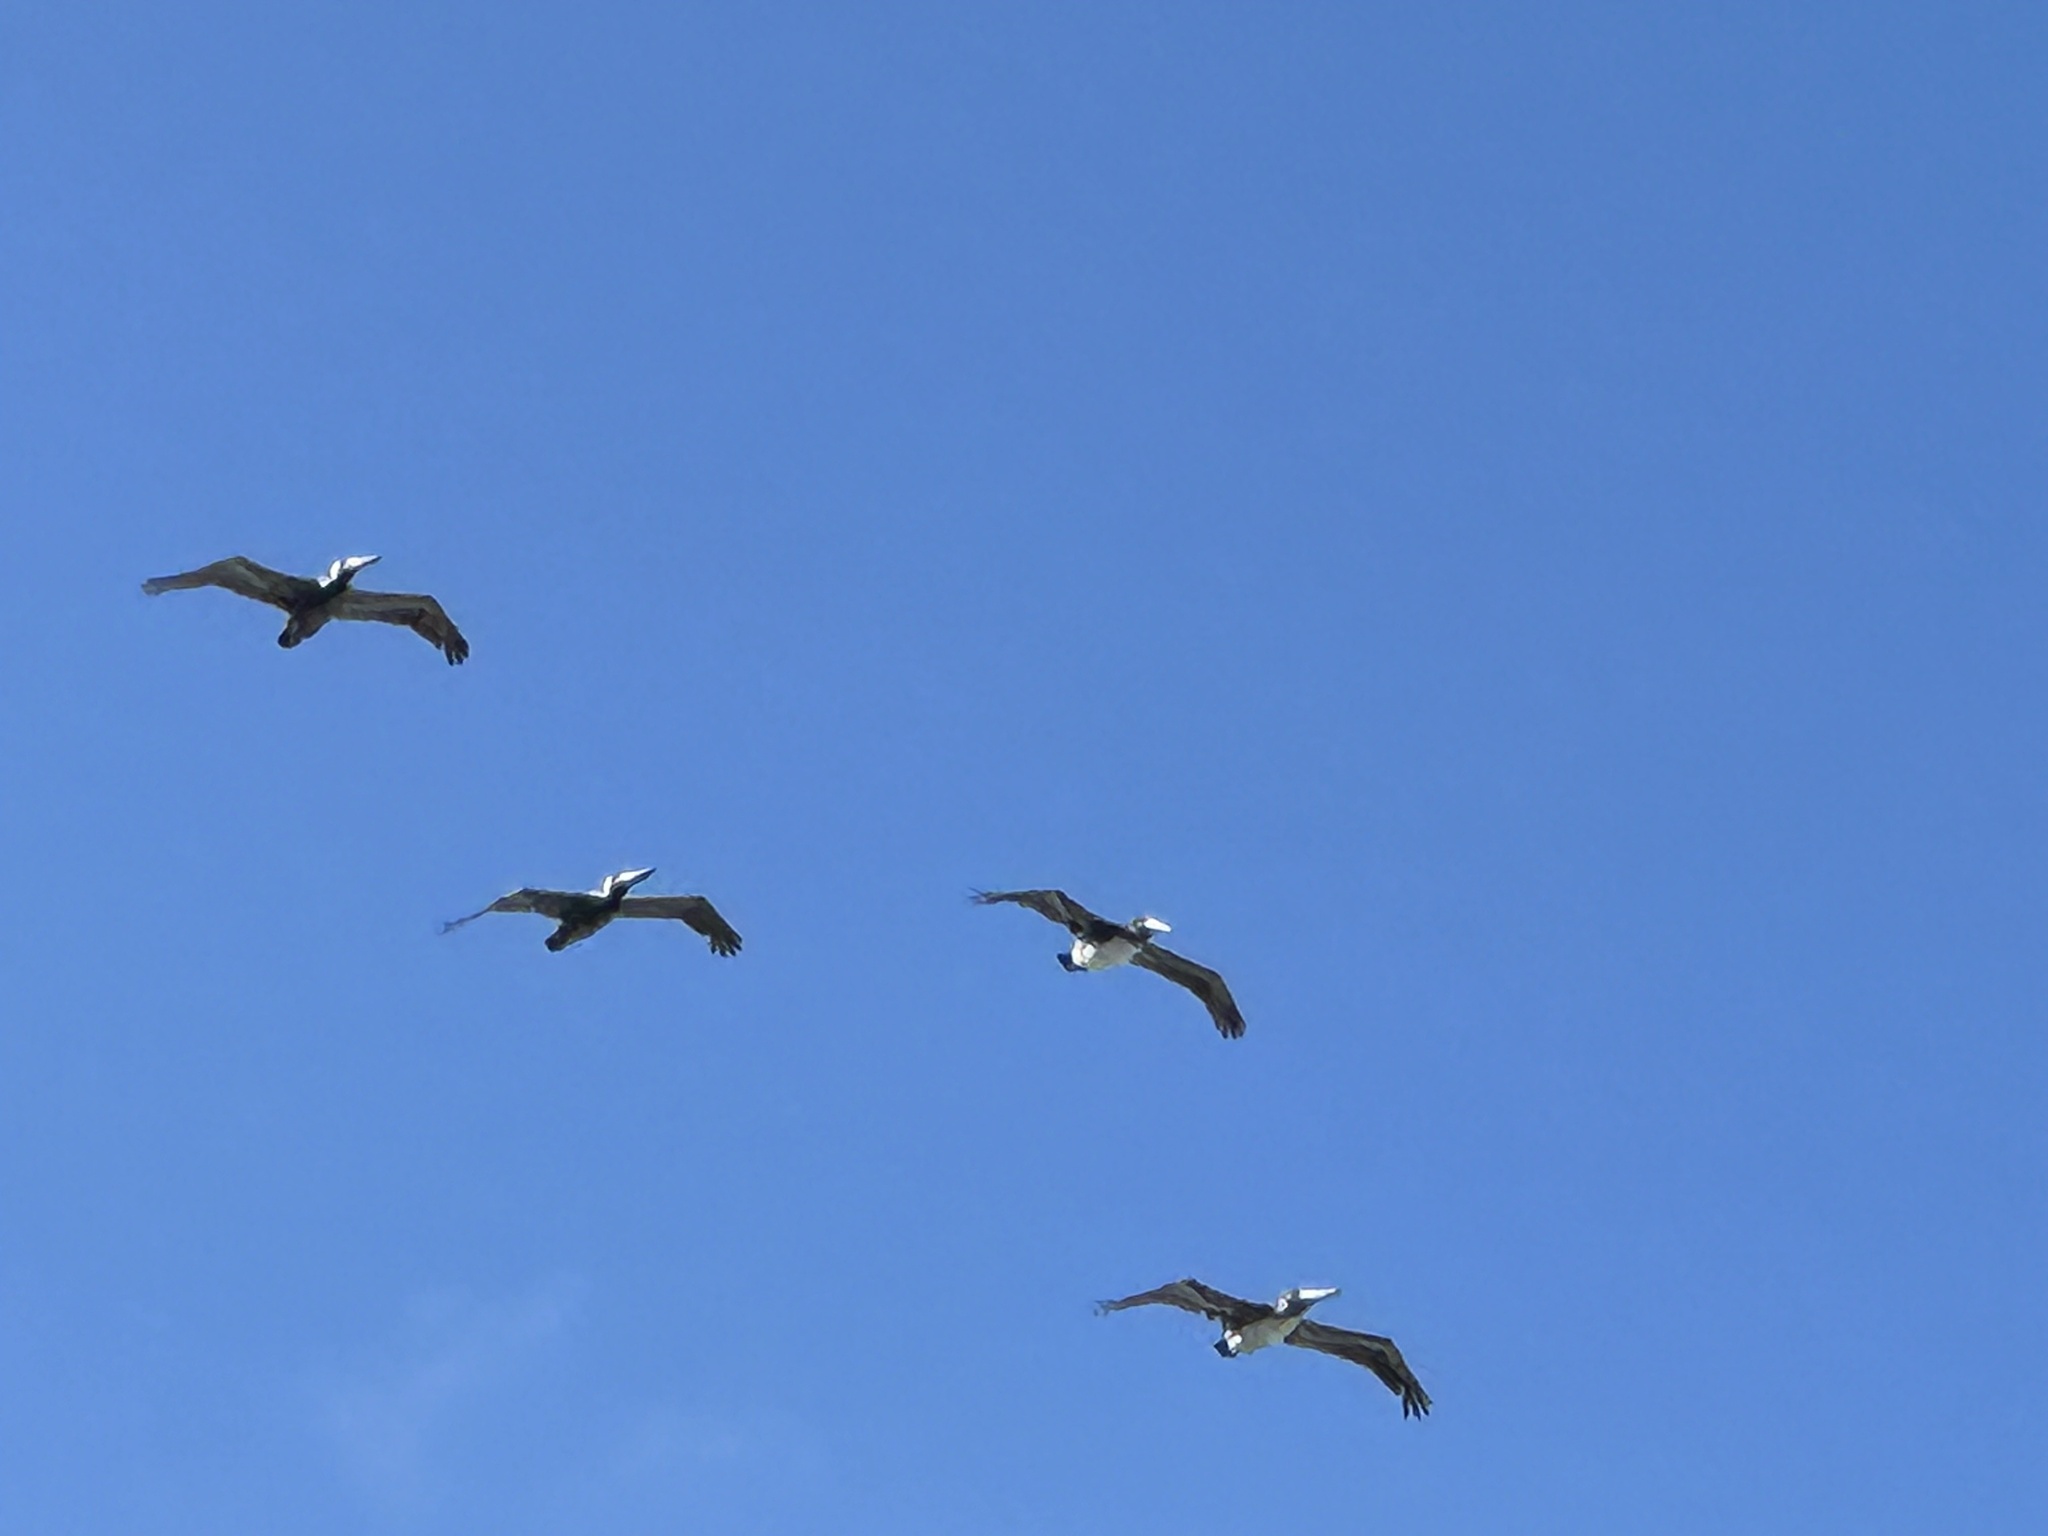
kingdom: Animalia
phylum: Chordata
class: Aves
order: Pelecaniformes
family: Pelecanidae
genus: Pelecanus
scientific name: Pelecanus occidentalis
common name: Brown pelican
